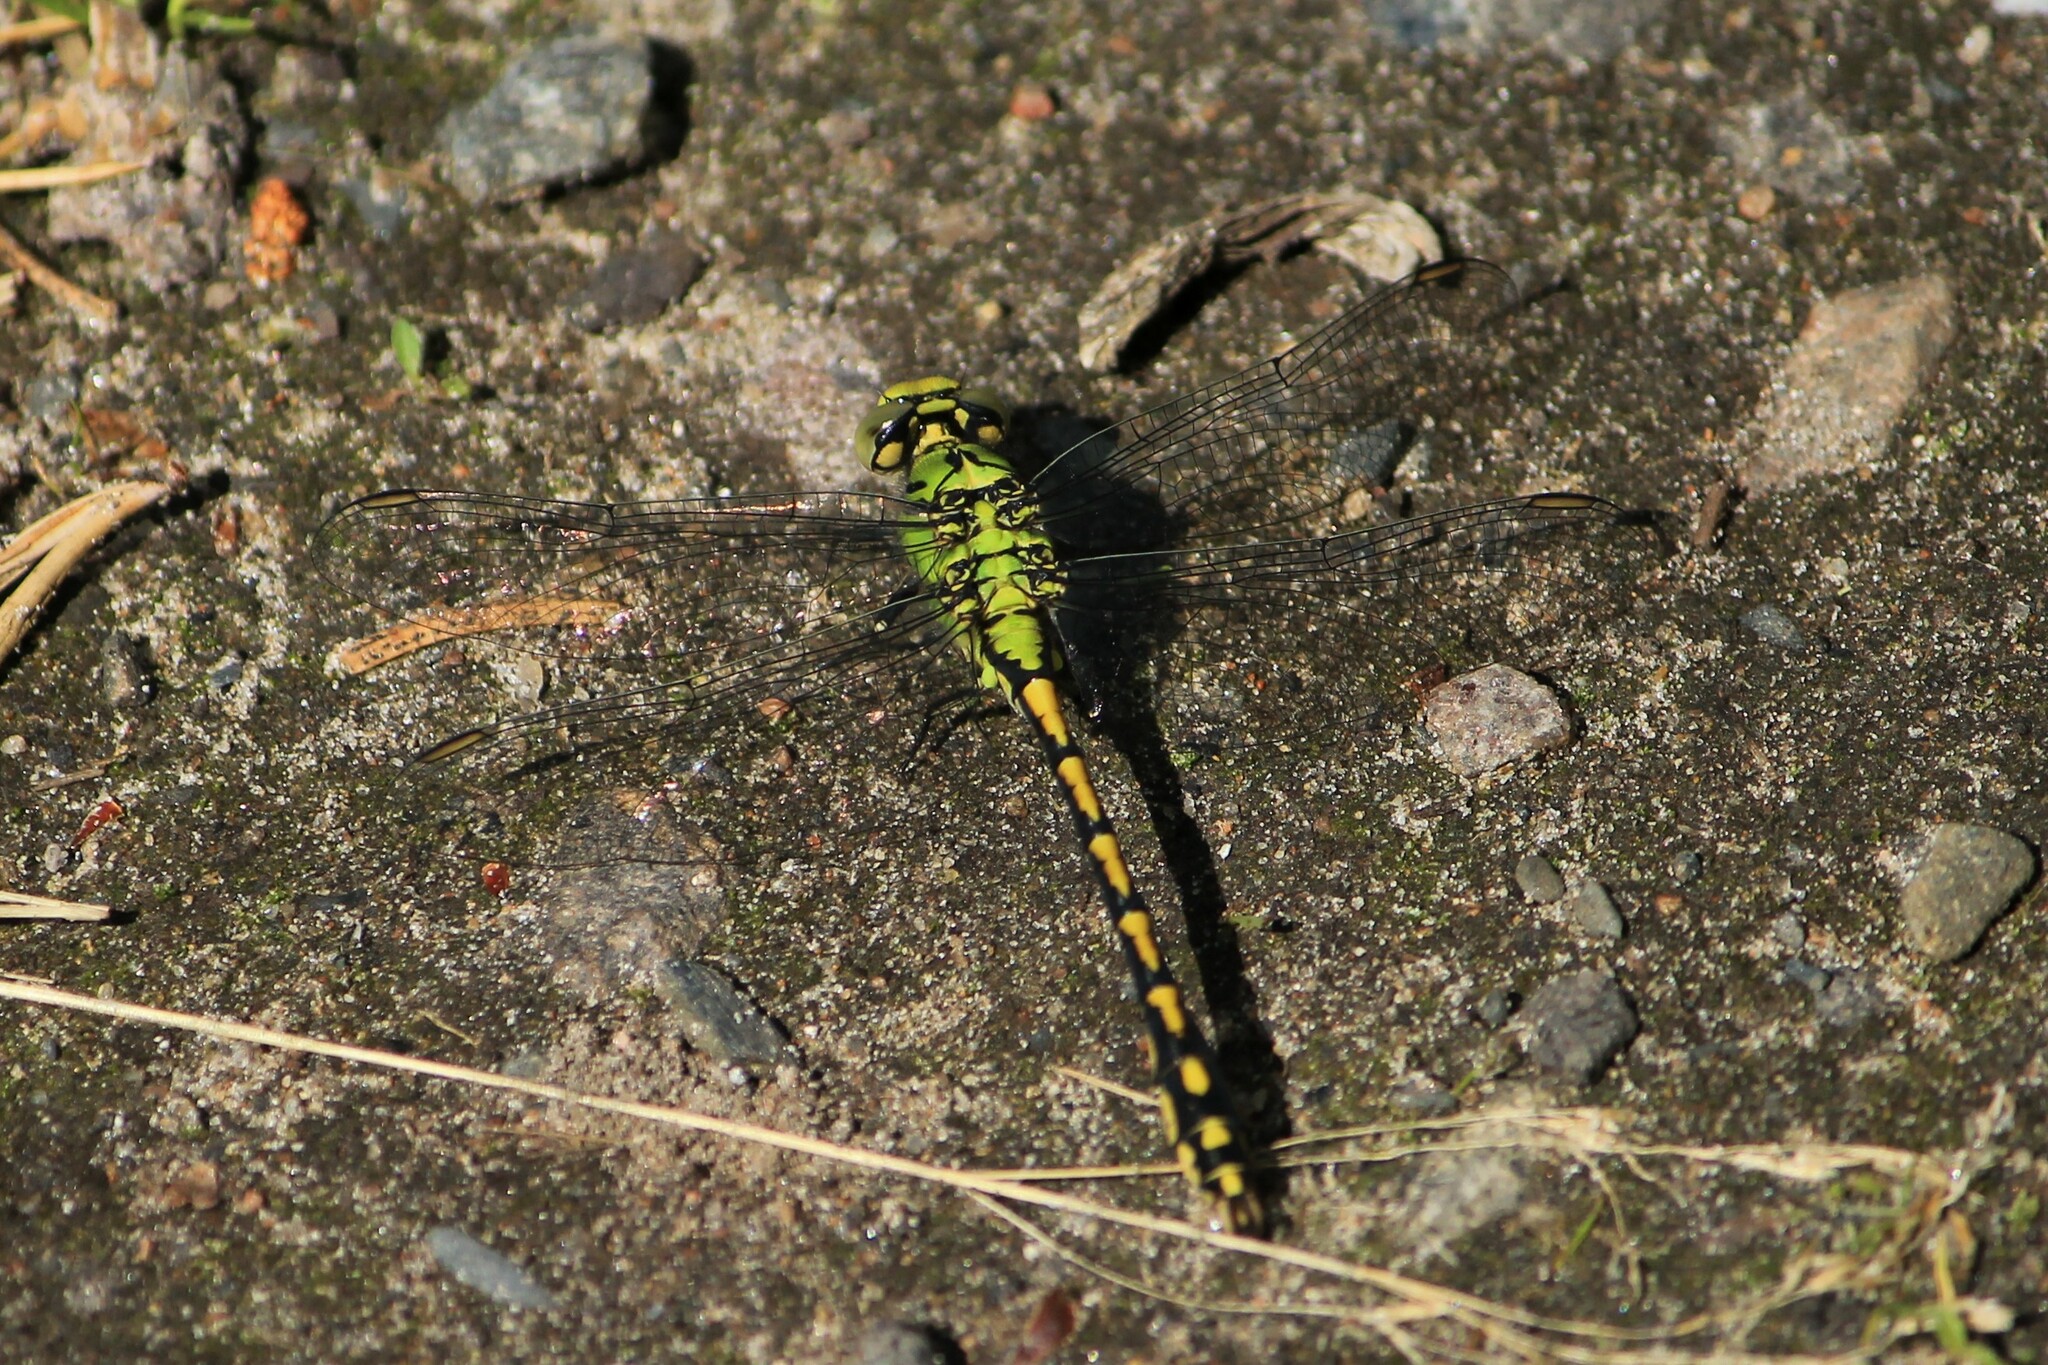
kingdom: Animalia
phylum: Arthropoda
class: Insecta
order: Odonata
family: Gomphidae
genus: Ophiogomphus
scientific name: Ophiogomphus cecilia
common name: Green snaketail
